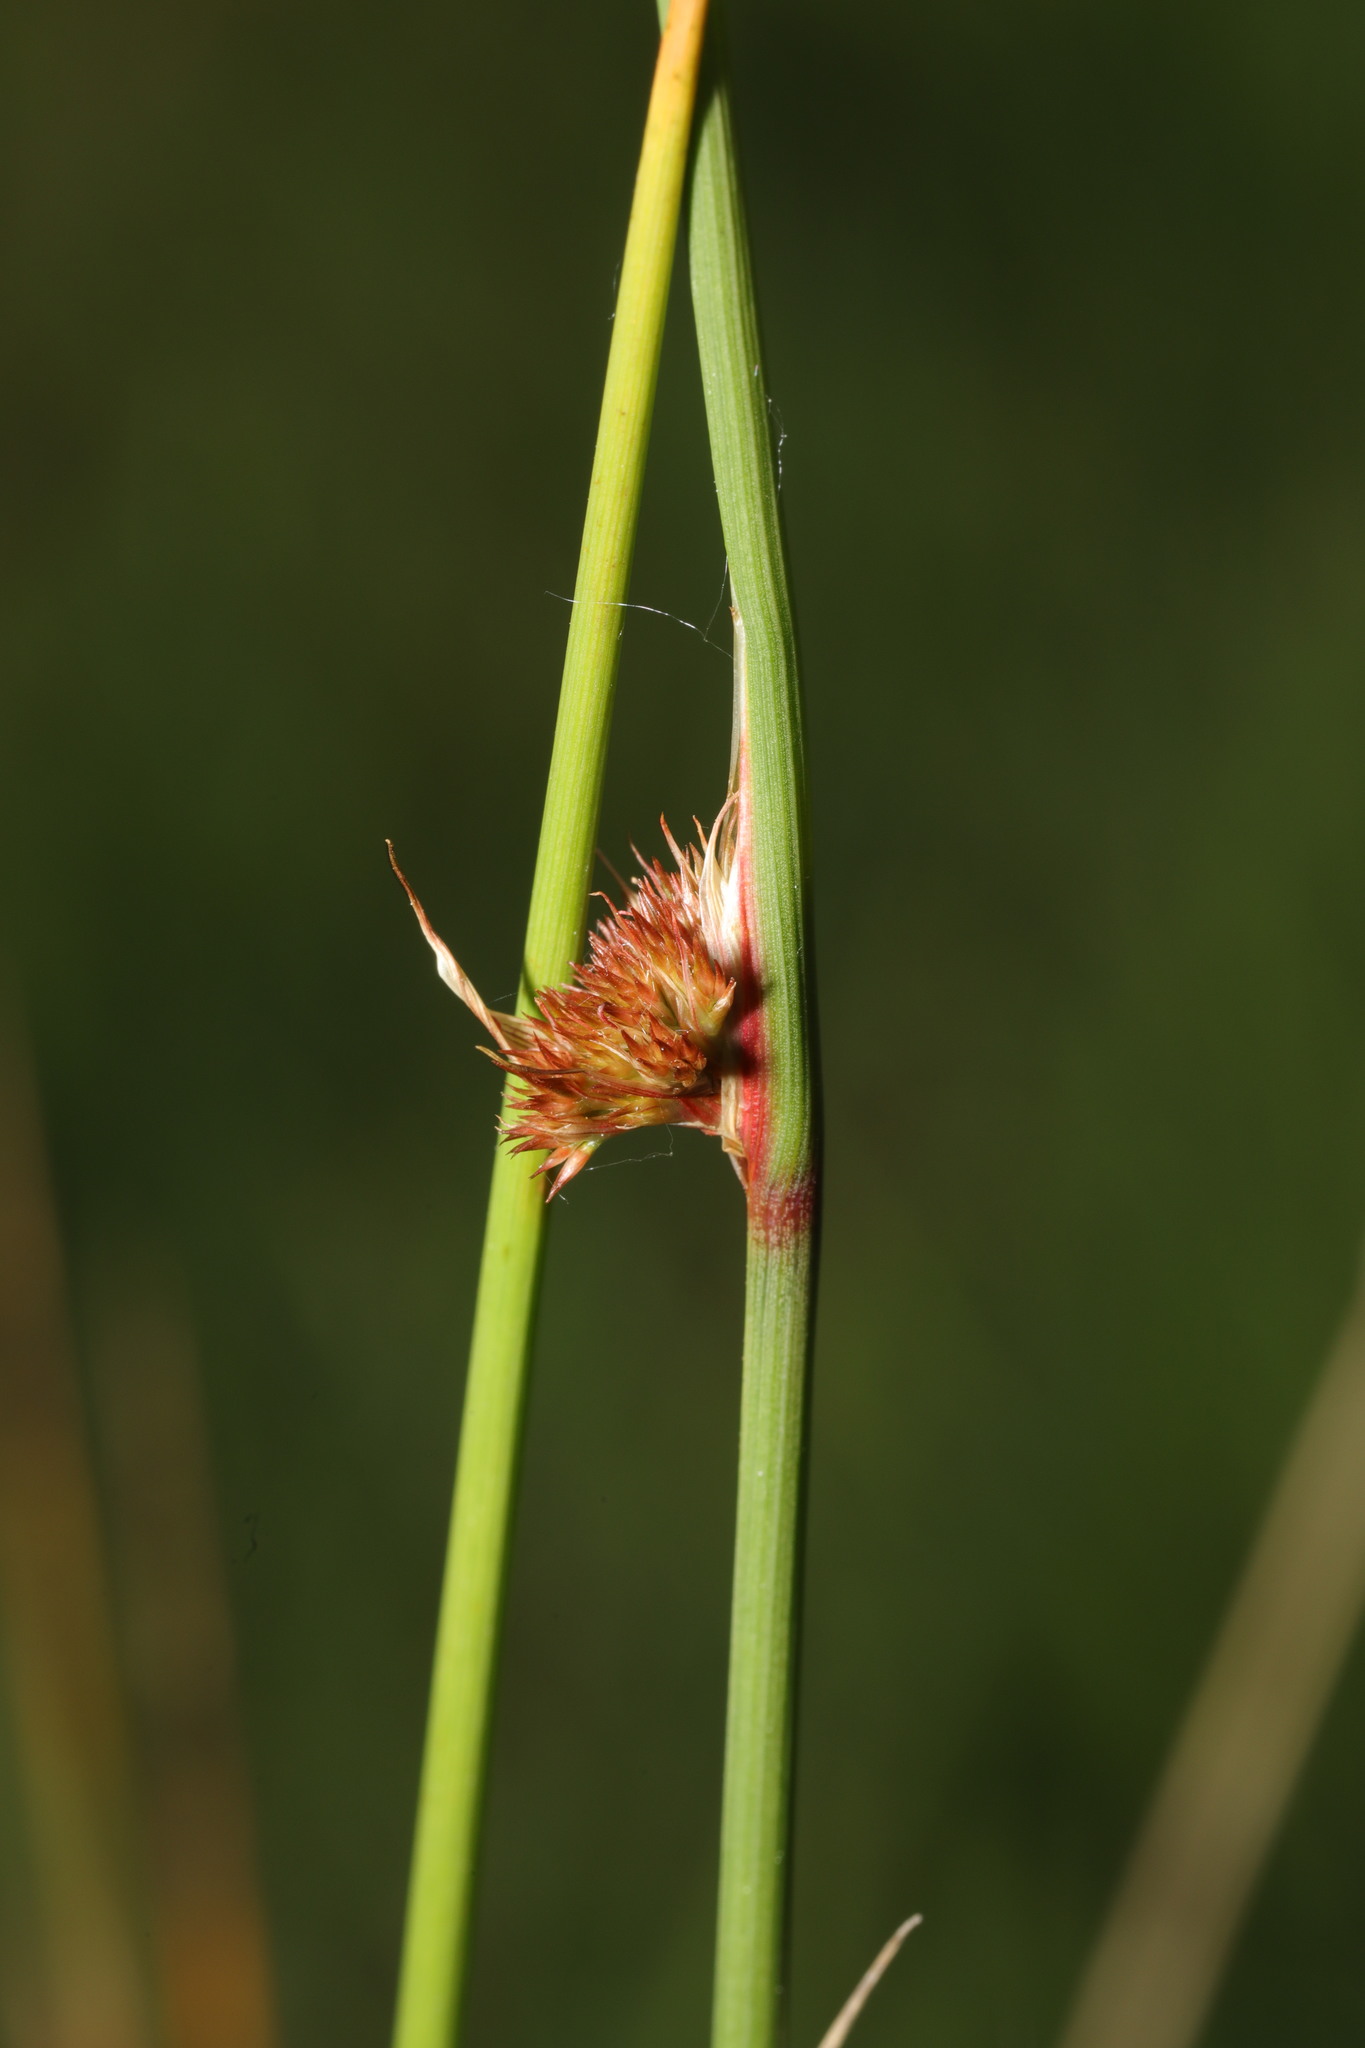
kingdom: Plantae
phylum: Tracheophyta
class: Liliopsida
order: Poales
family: Juncaceae
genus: Juncus
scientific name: Juncus conglomeratus
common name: Compact rush
